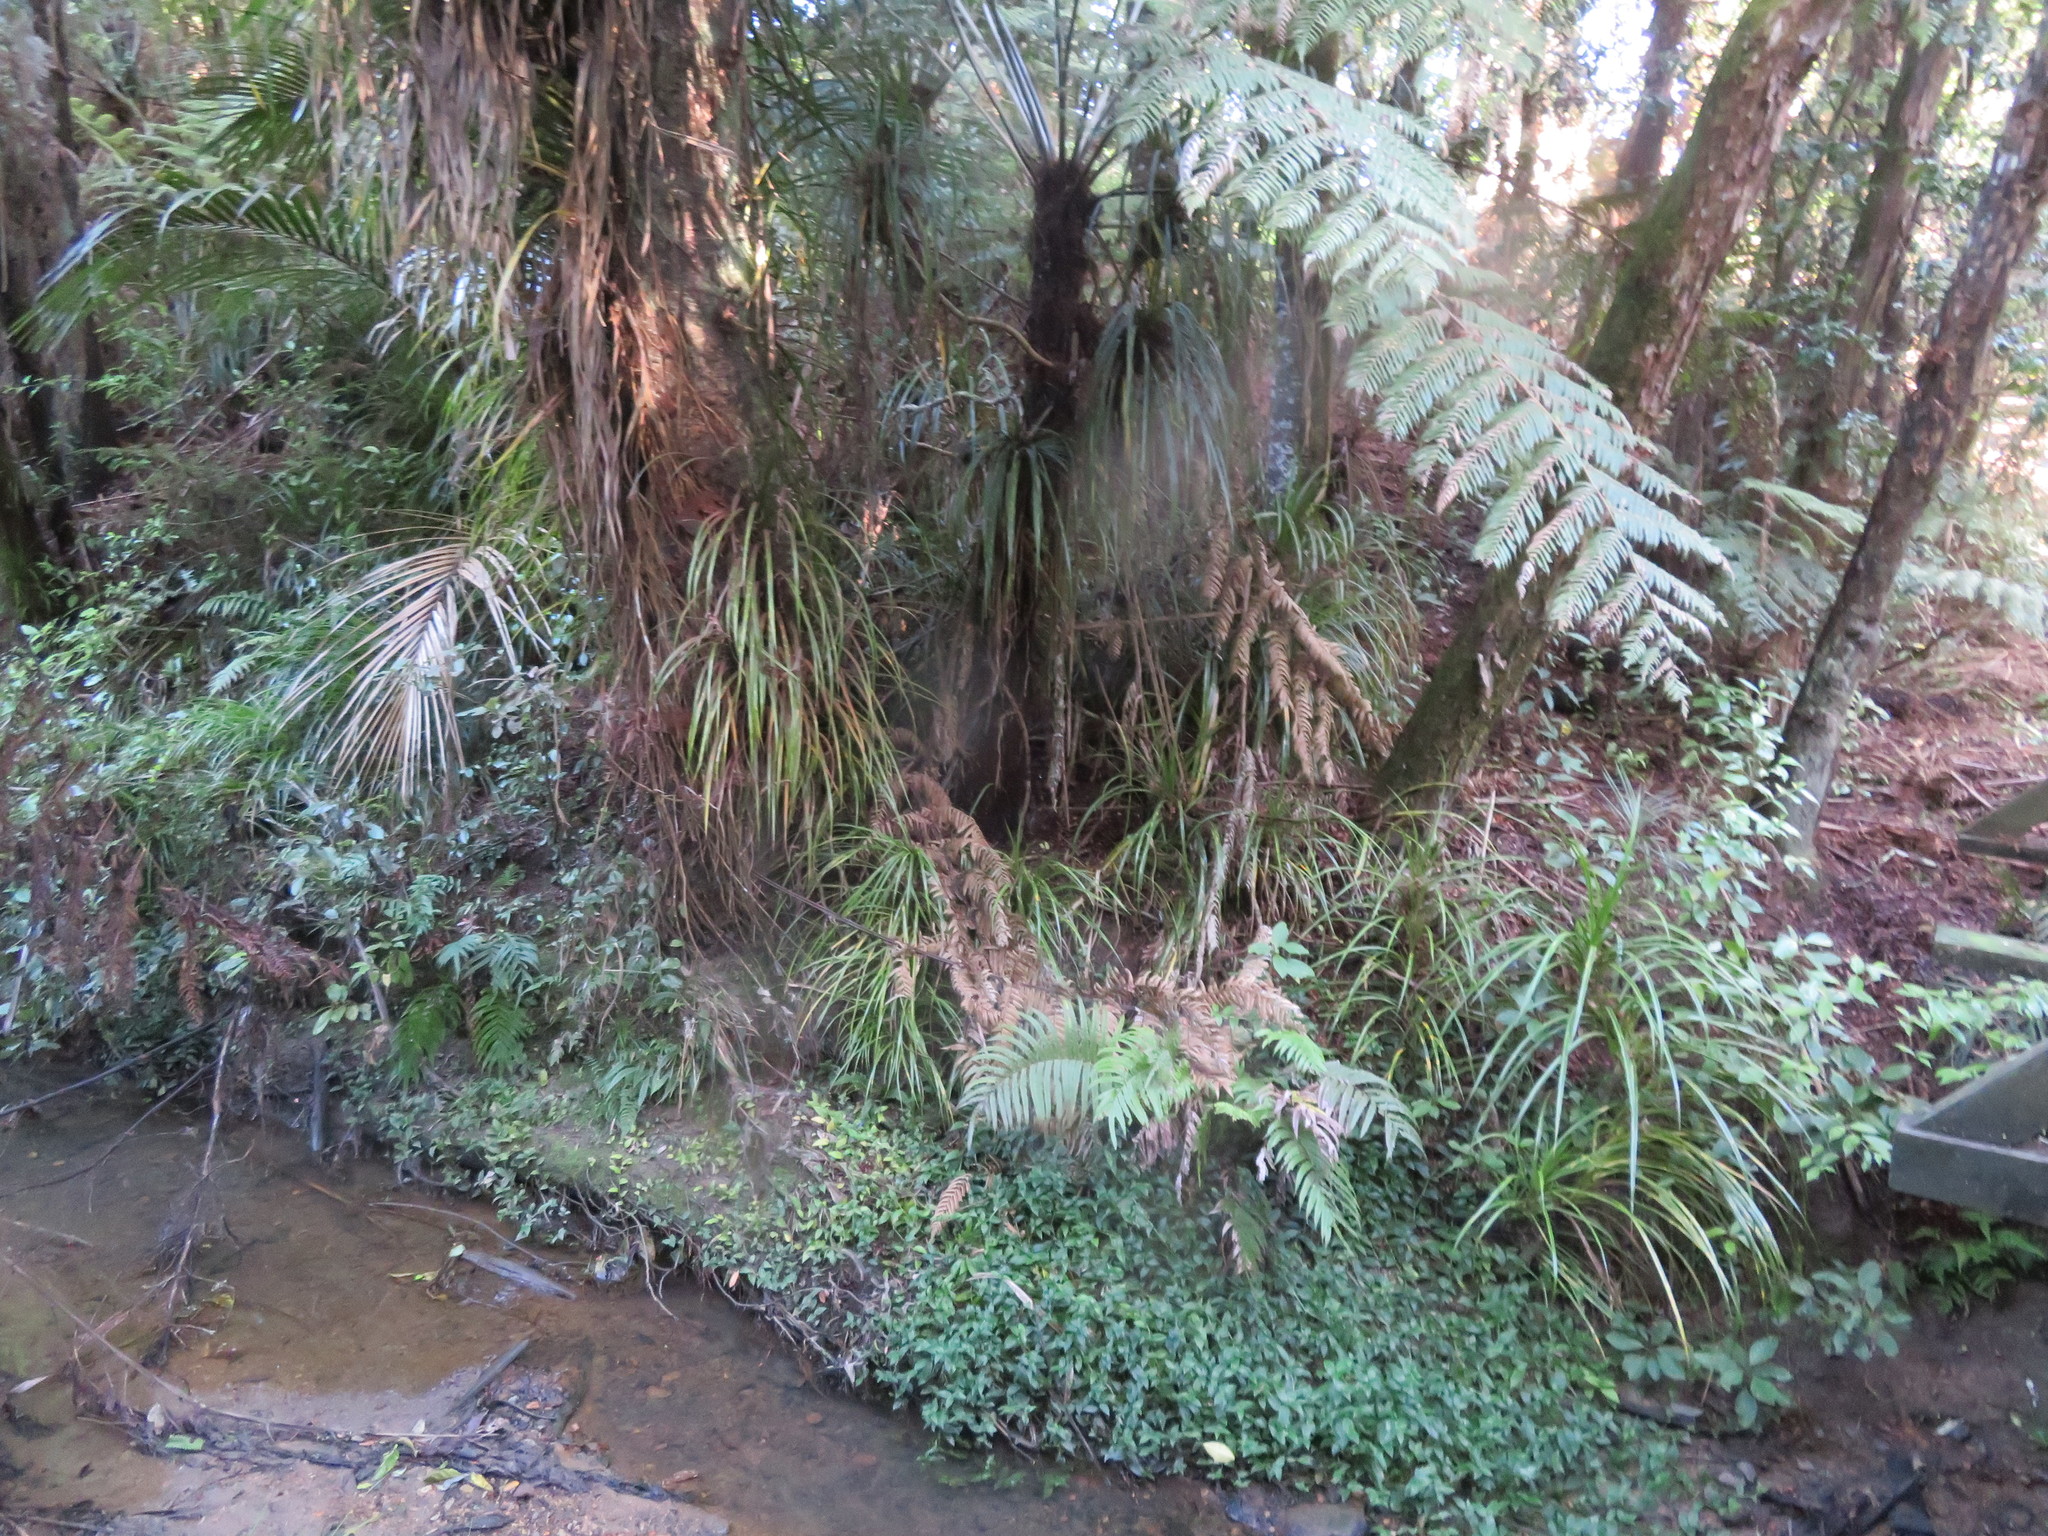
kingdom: Plantae
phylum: Tracheophyta
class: Liliopsida
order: Commelinales
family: Commelinaceae
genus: Tradescantia
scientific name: Tradescantia fluminensis
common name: Wandering-jew
